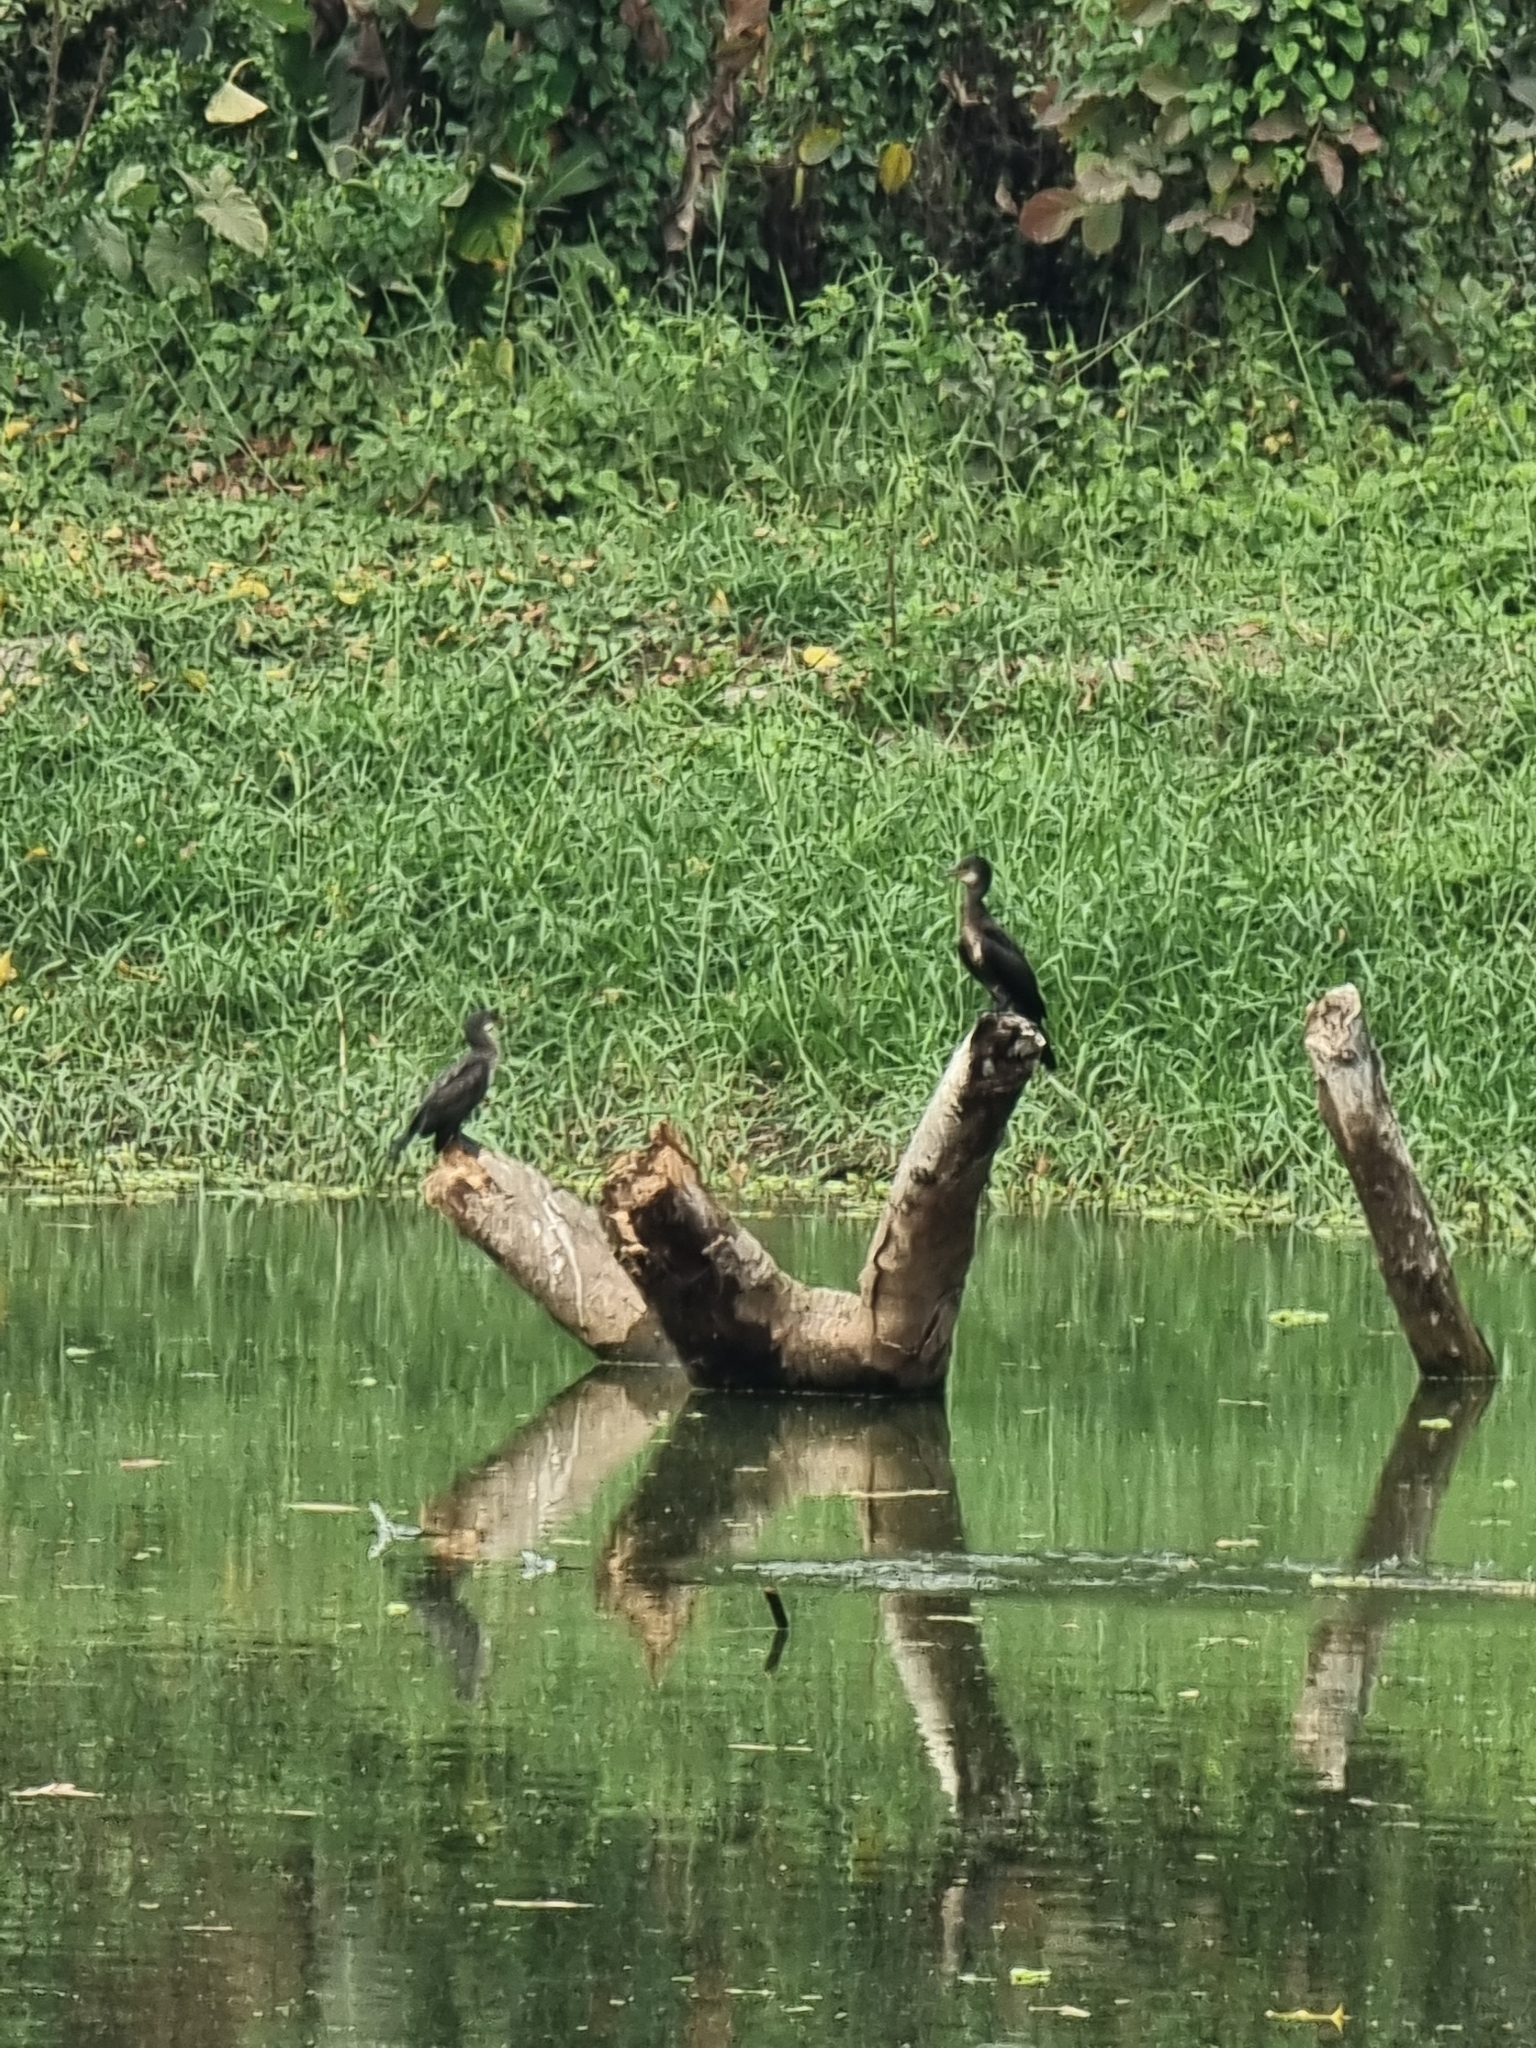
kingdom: Animalia
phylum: Chordata
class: Aves
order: Suliformes
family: Phalacrocoracidae
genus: Microcarbo
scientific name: Microcarbo niger
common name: Little cormorant
